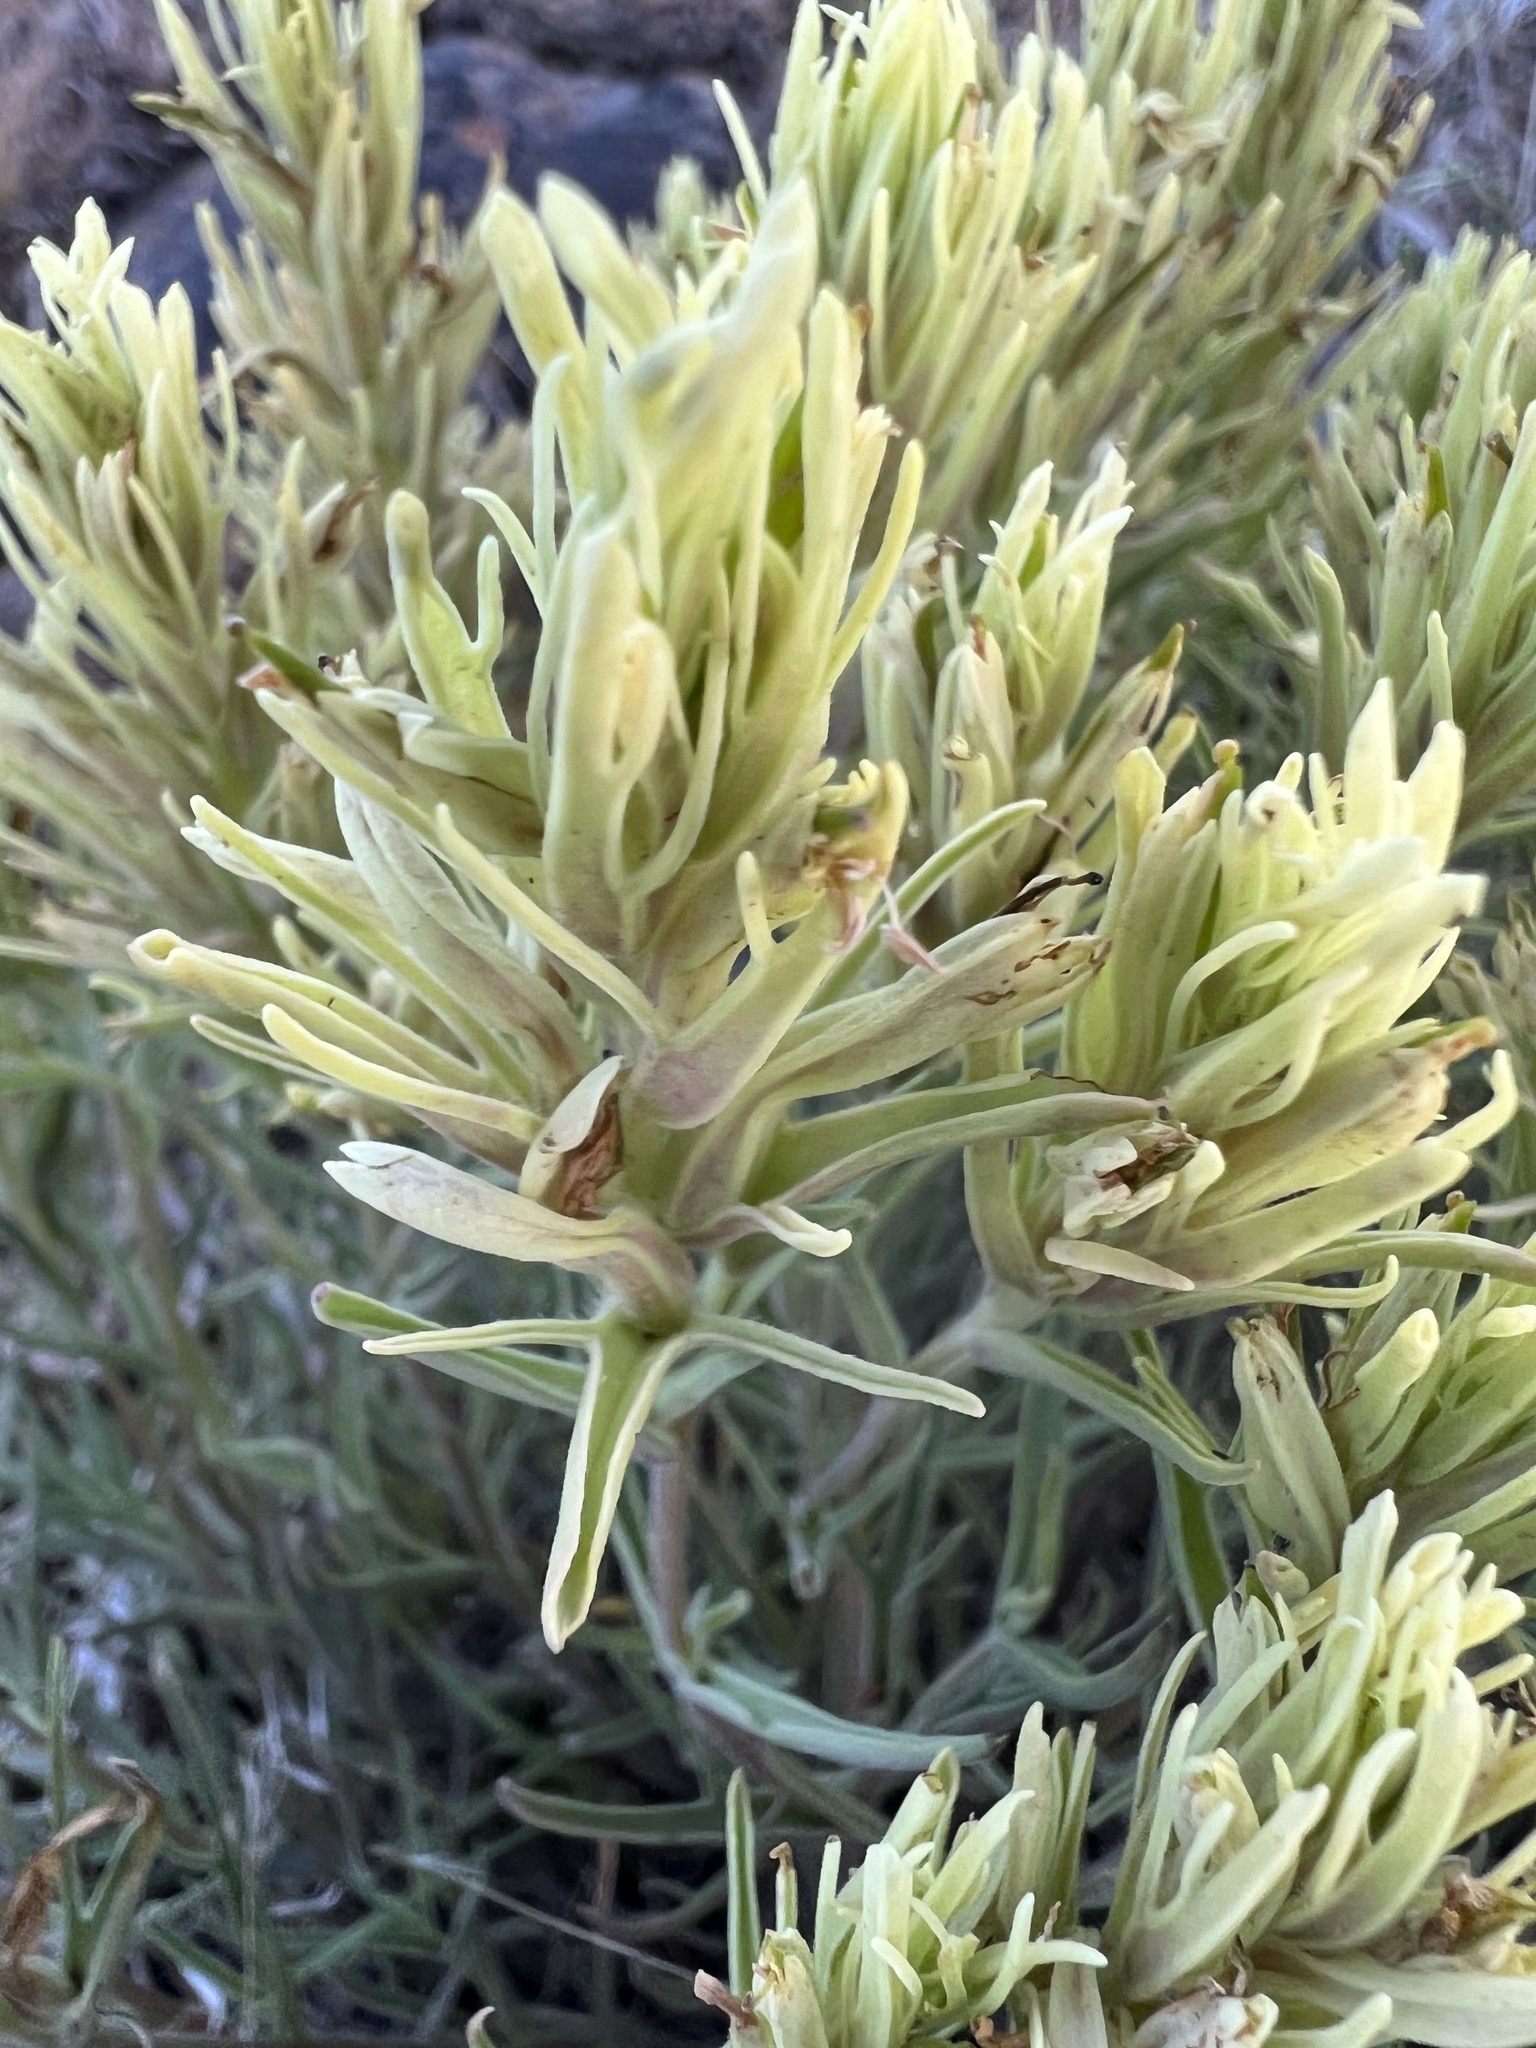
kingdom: Plantae
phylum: Tracheophyta
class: Magnoliopsida
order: Lamiales
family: Orobanchaceae
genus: Castilleja
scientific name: Castilleja thompsonii
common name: Thompson's paintbrush
